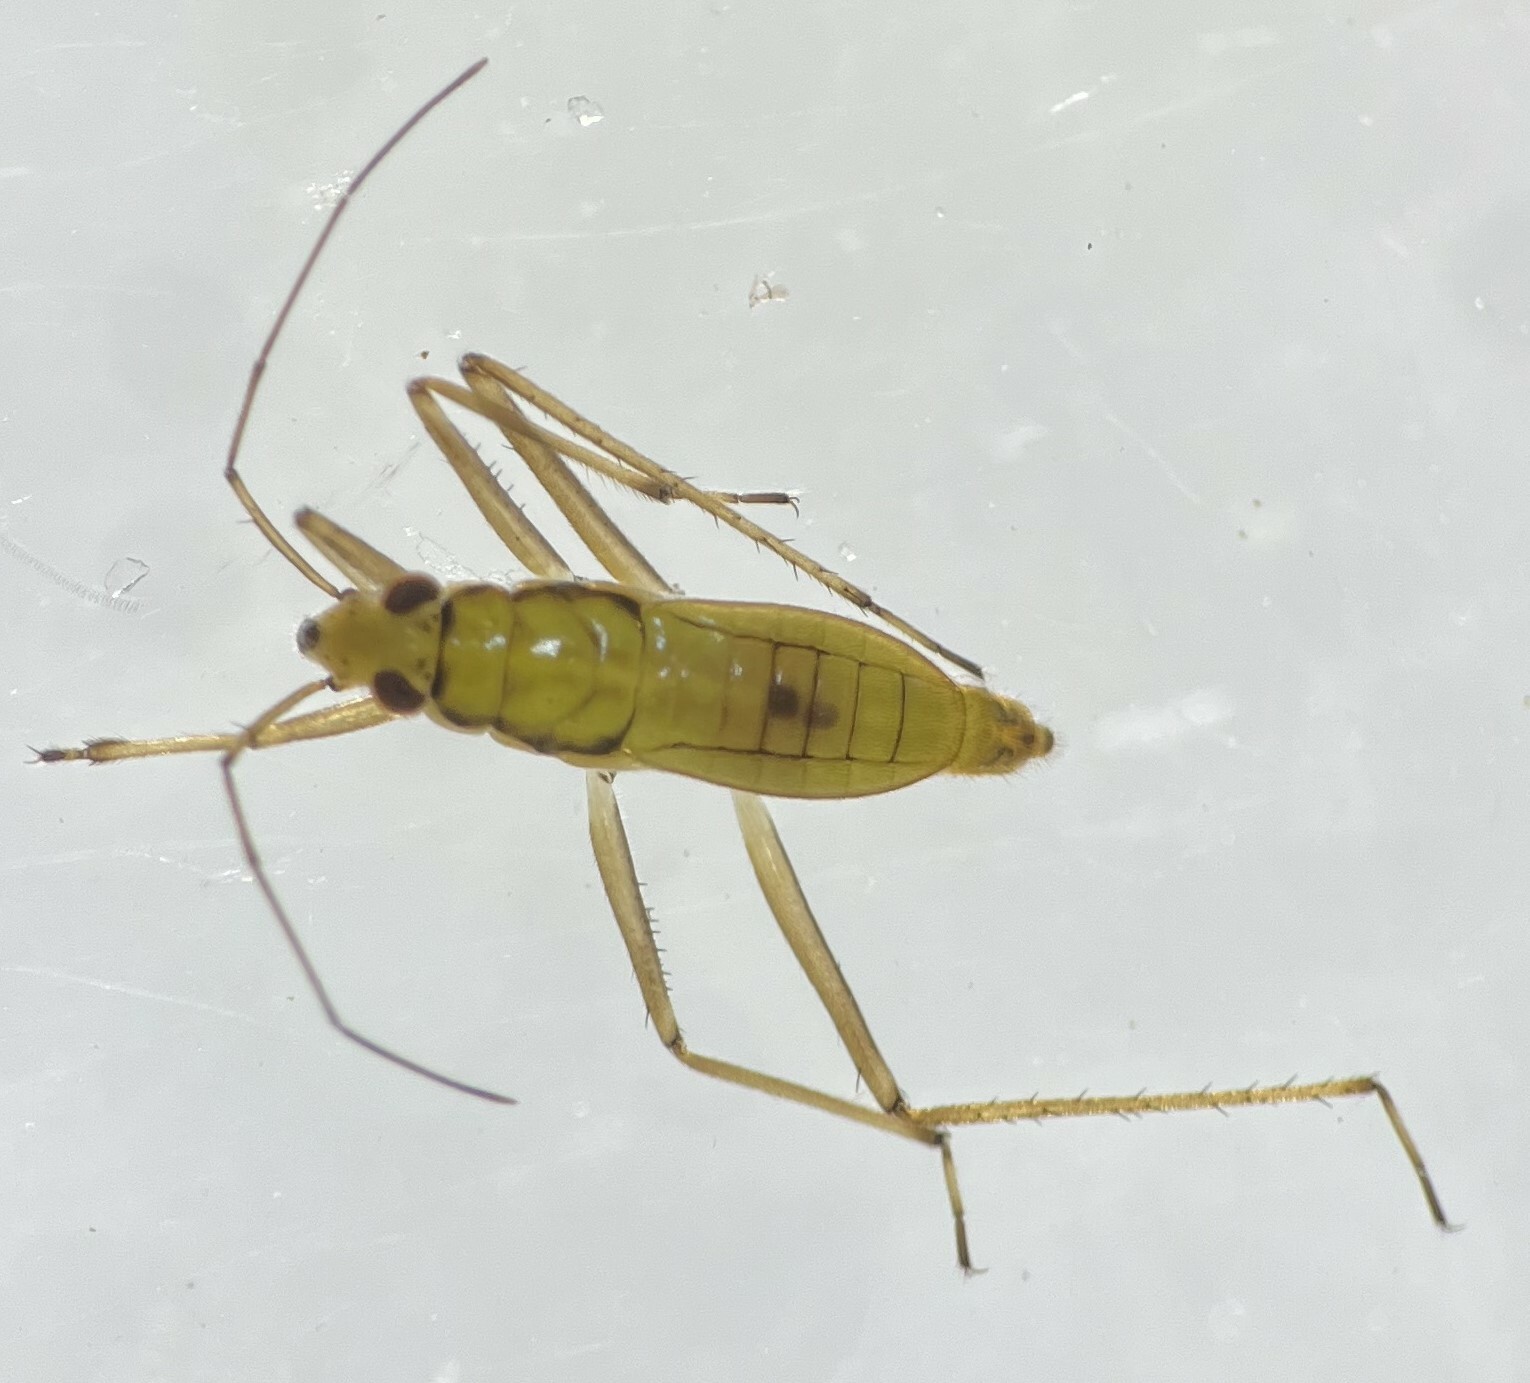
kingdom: Animalia
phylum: Arthropoda
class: Insecta
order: Hemiptera
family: Mesoveliidae
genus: Mesovelia
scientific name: Mesovelia mulsanti
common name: Water treaders
